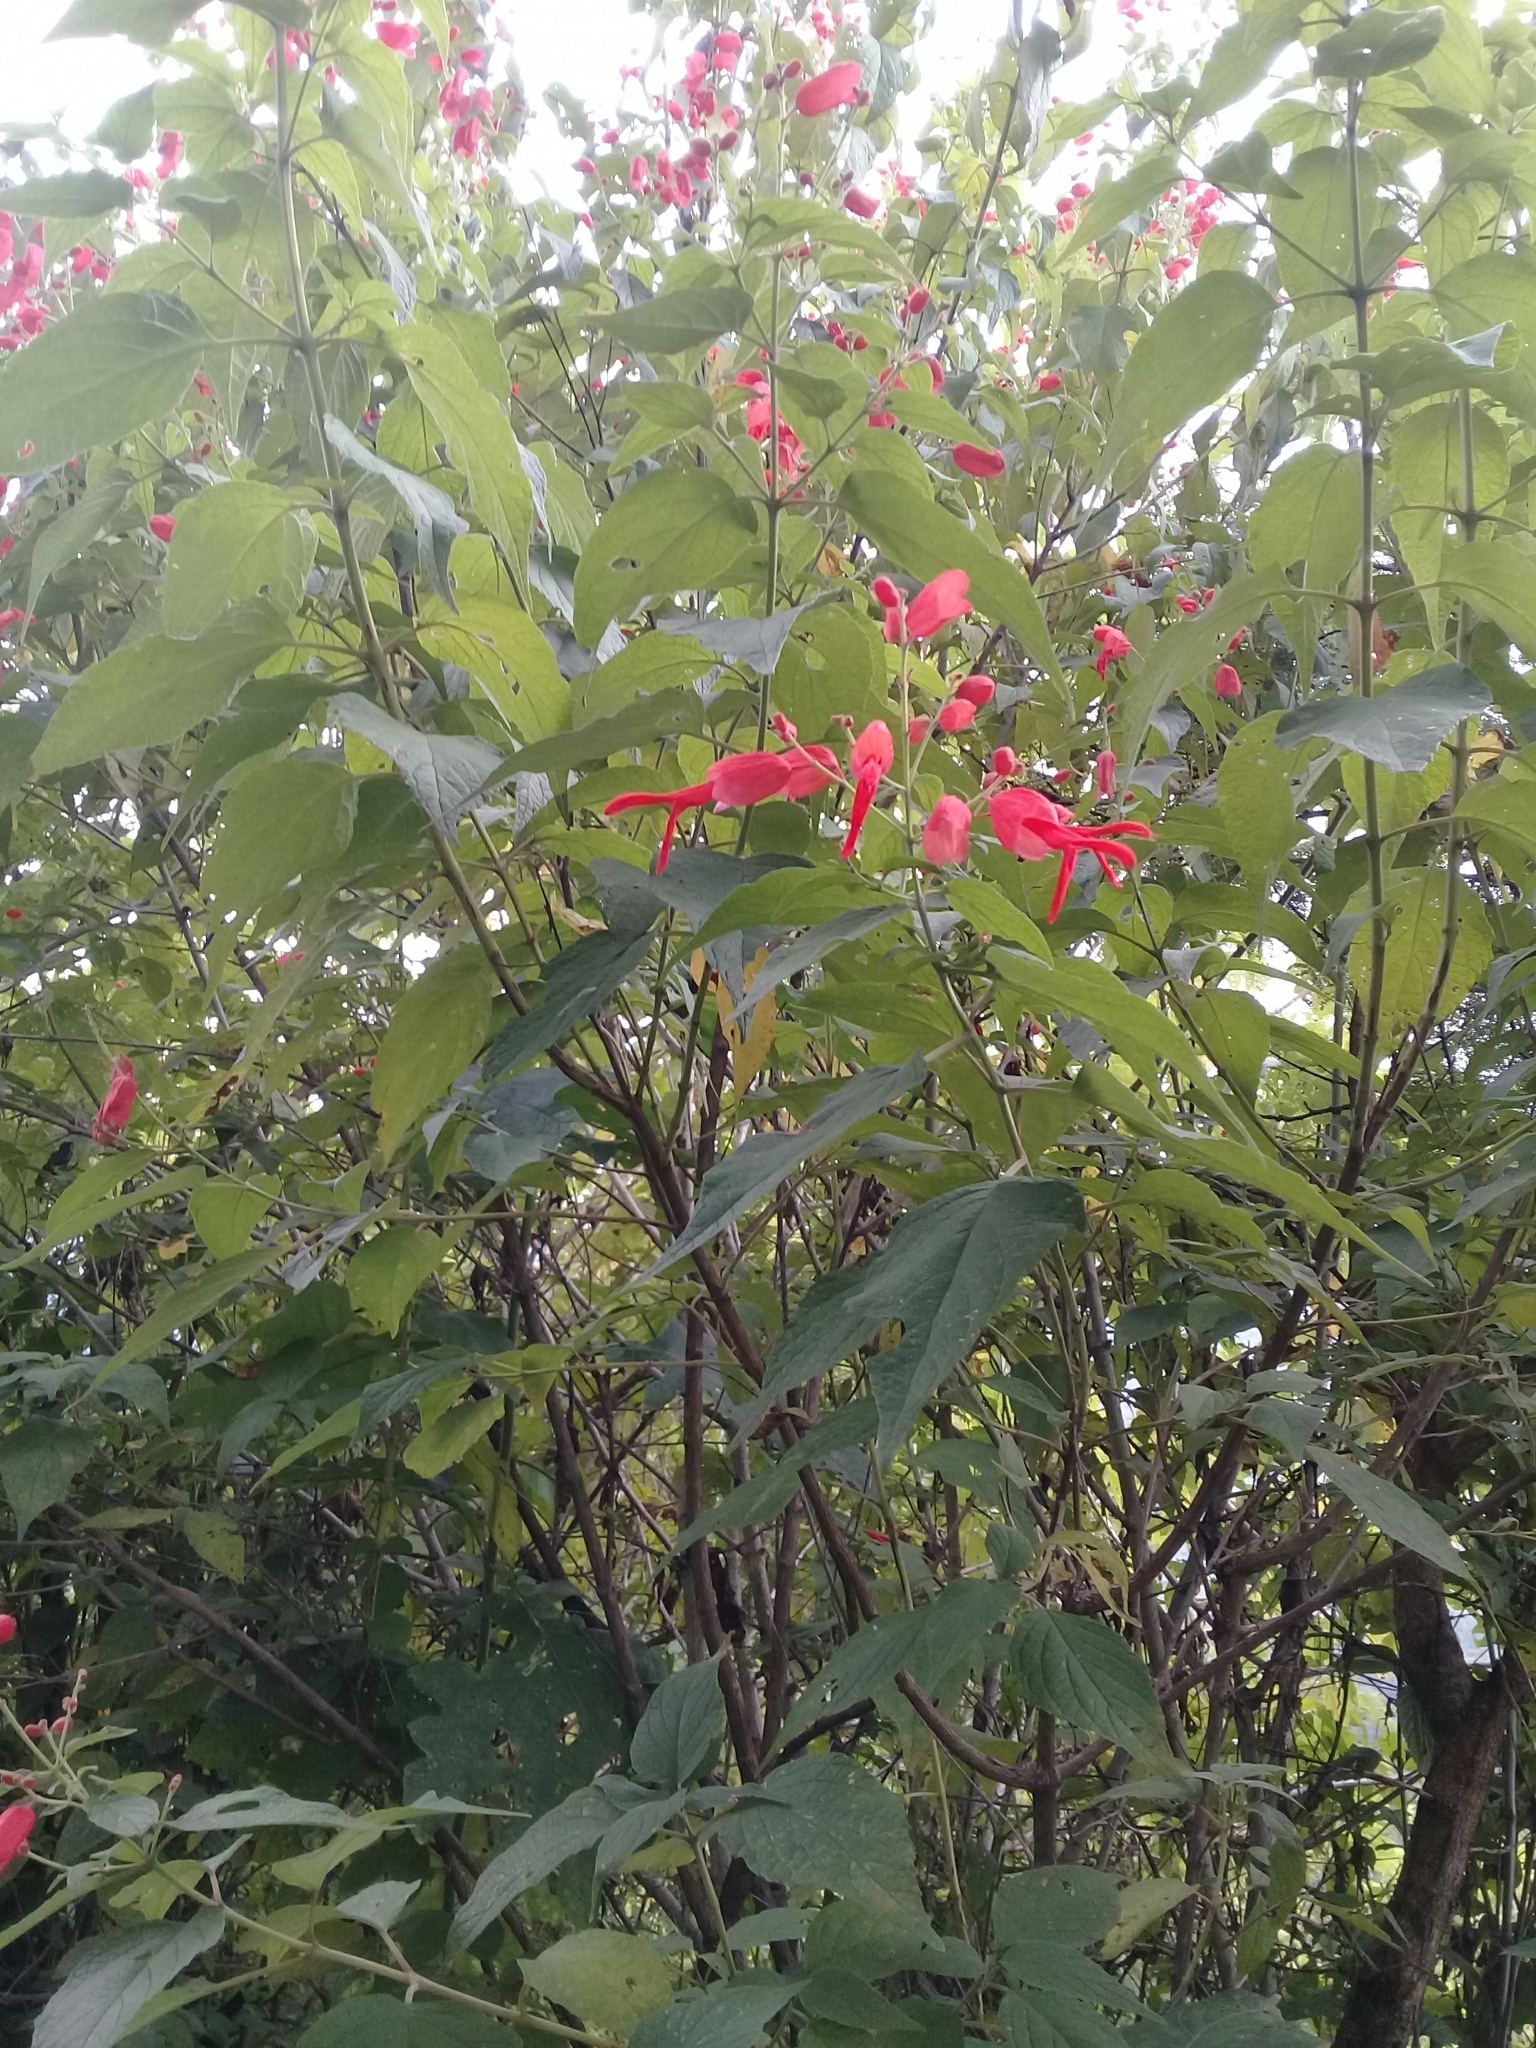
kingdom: Plantae
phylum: Tracheophyta
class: Magnoliopsida
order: Lamiales
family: Lamiaceae
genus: Salvia
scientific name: Salvia sessei
